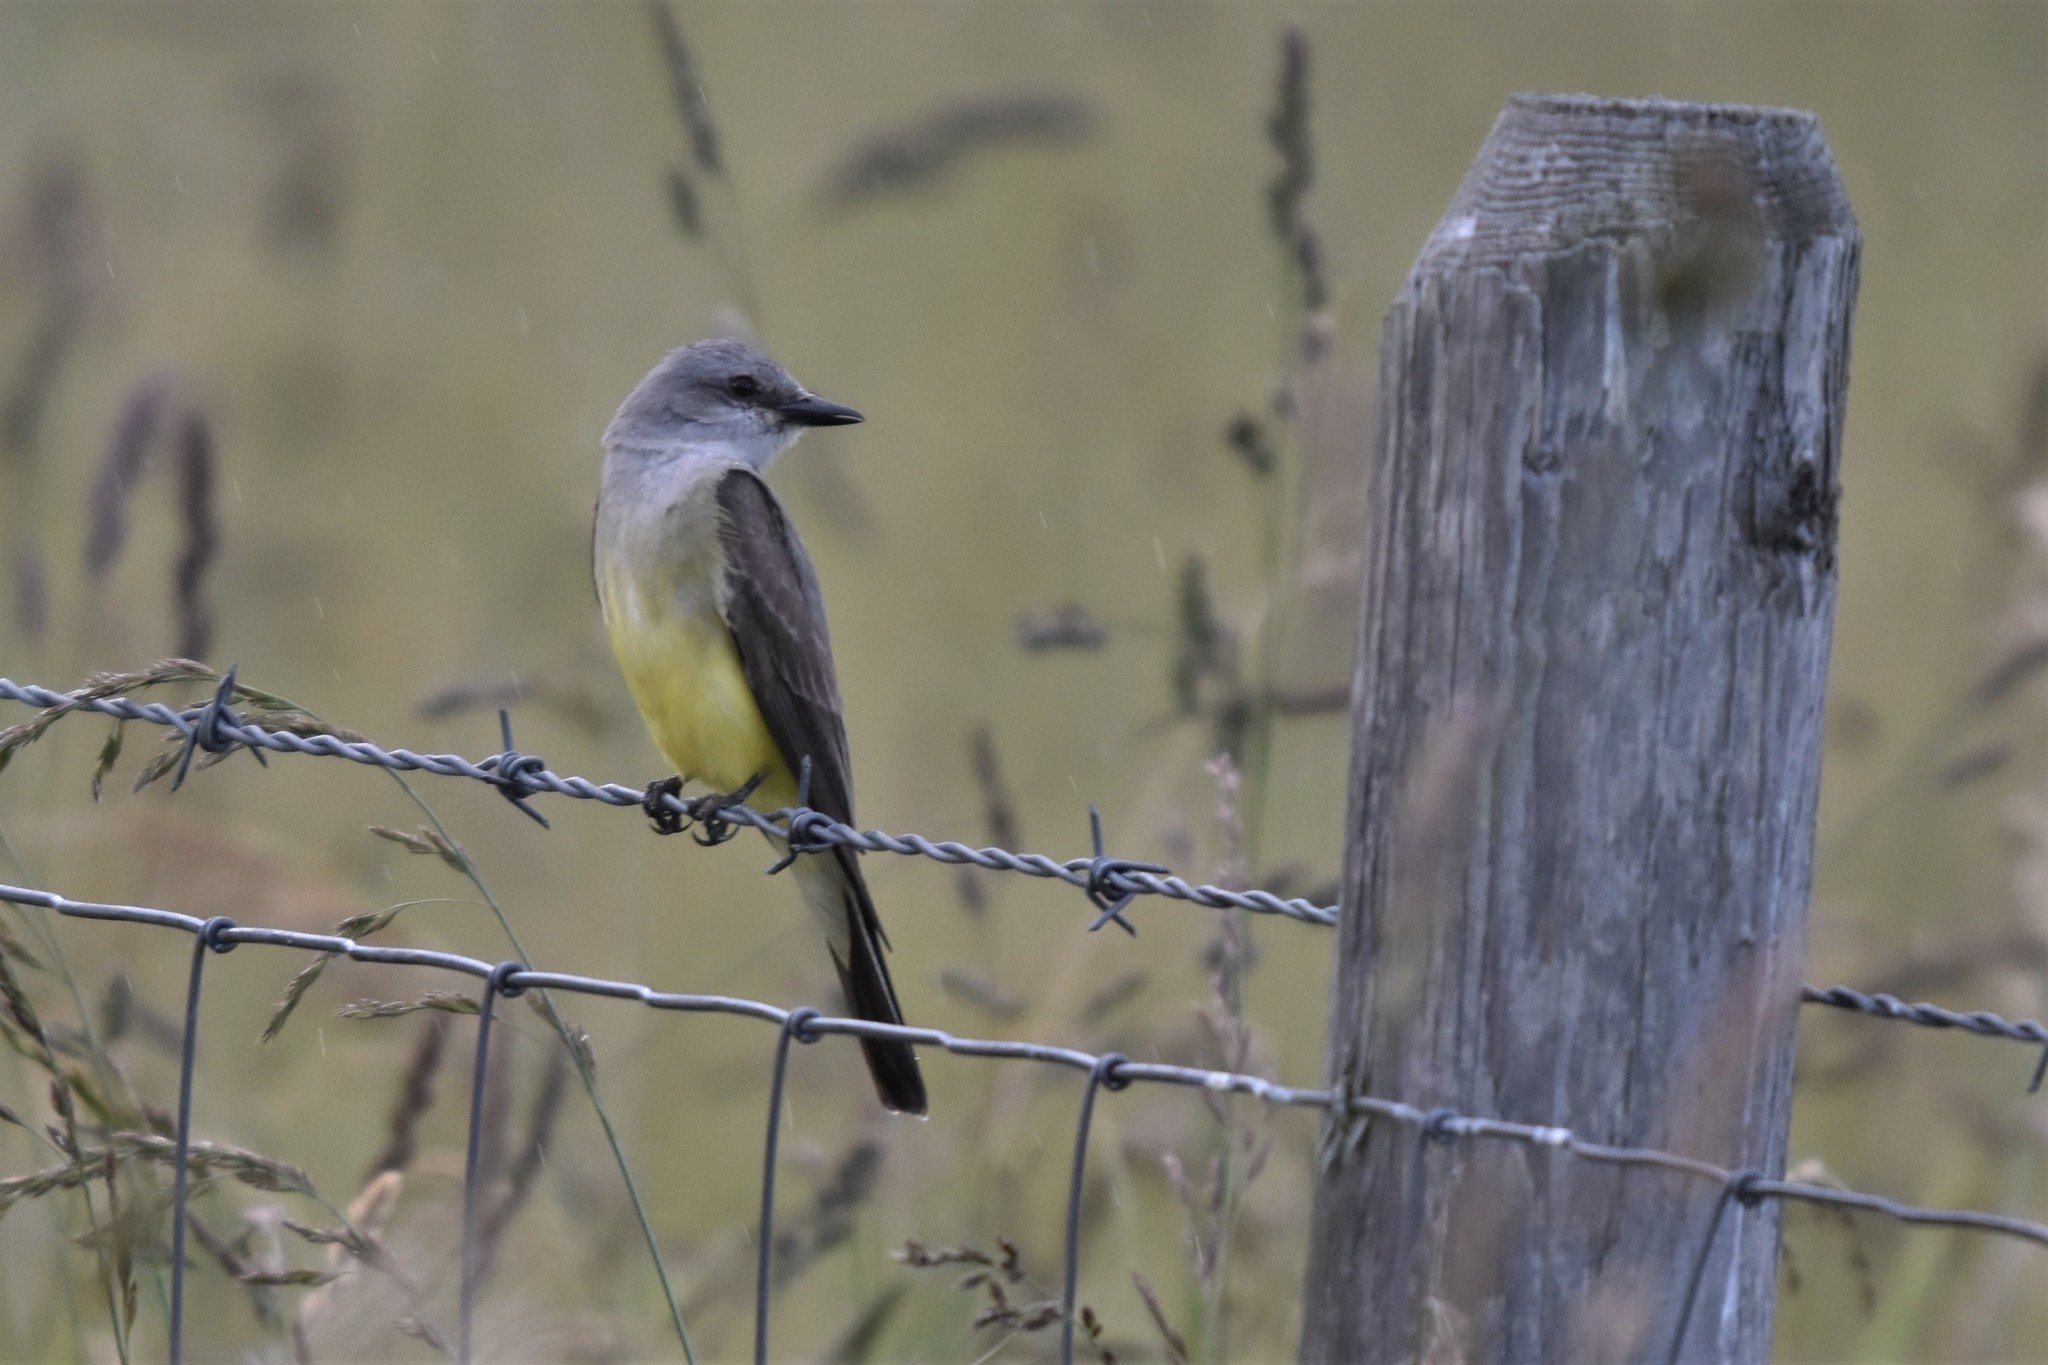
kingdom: Animalia
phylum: Chordata
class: Aves
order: Passeriformes
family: Tyrannidae
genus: Tyrannus
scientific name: Tyrannus verticalis
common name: Western kingbird
